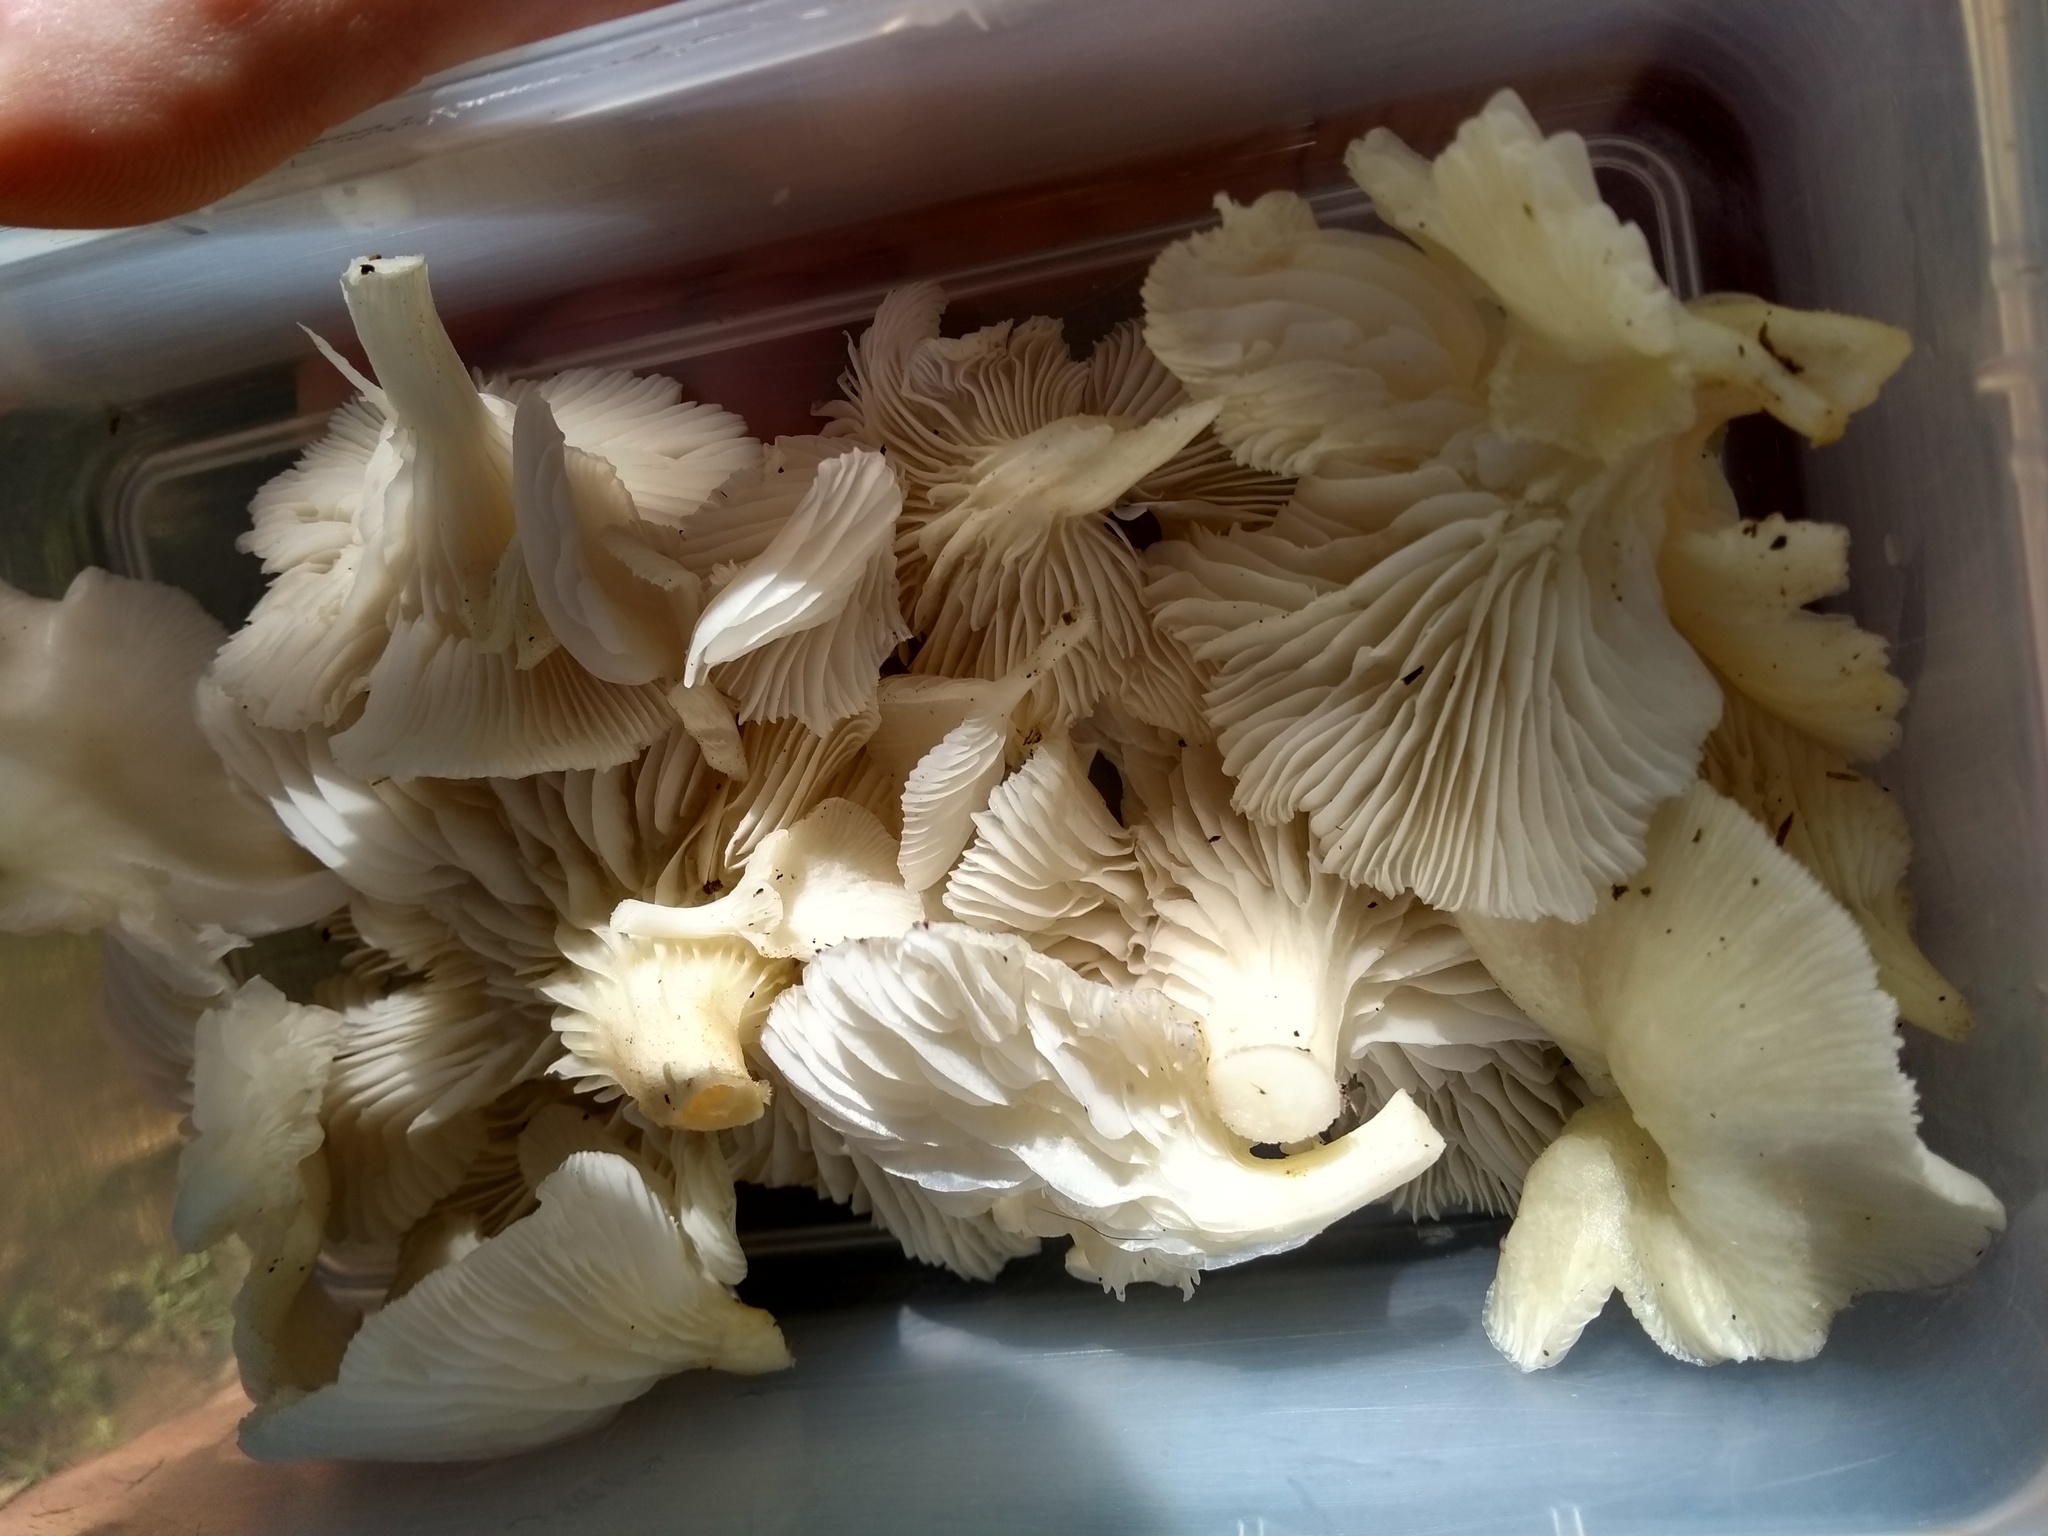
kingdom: Fungi
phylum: Basidiomycota
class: Agaricomycetes
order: Agaricales
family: Pleurotaceae
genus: Pleurotus
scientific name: Pleurotus albidus
